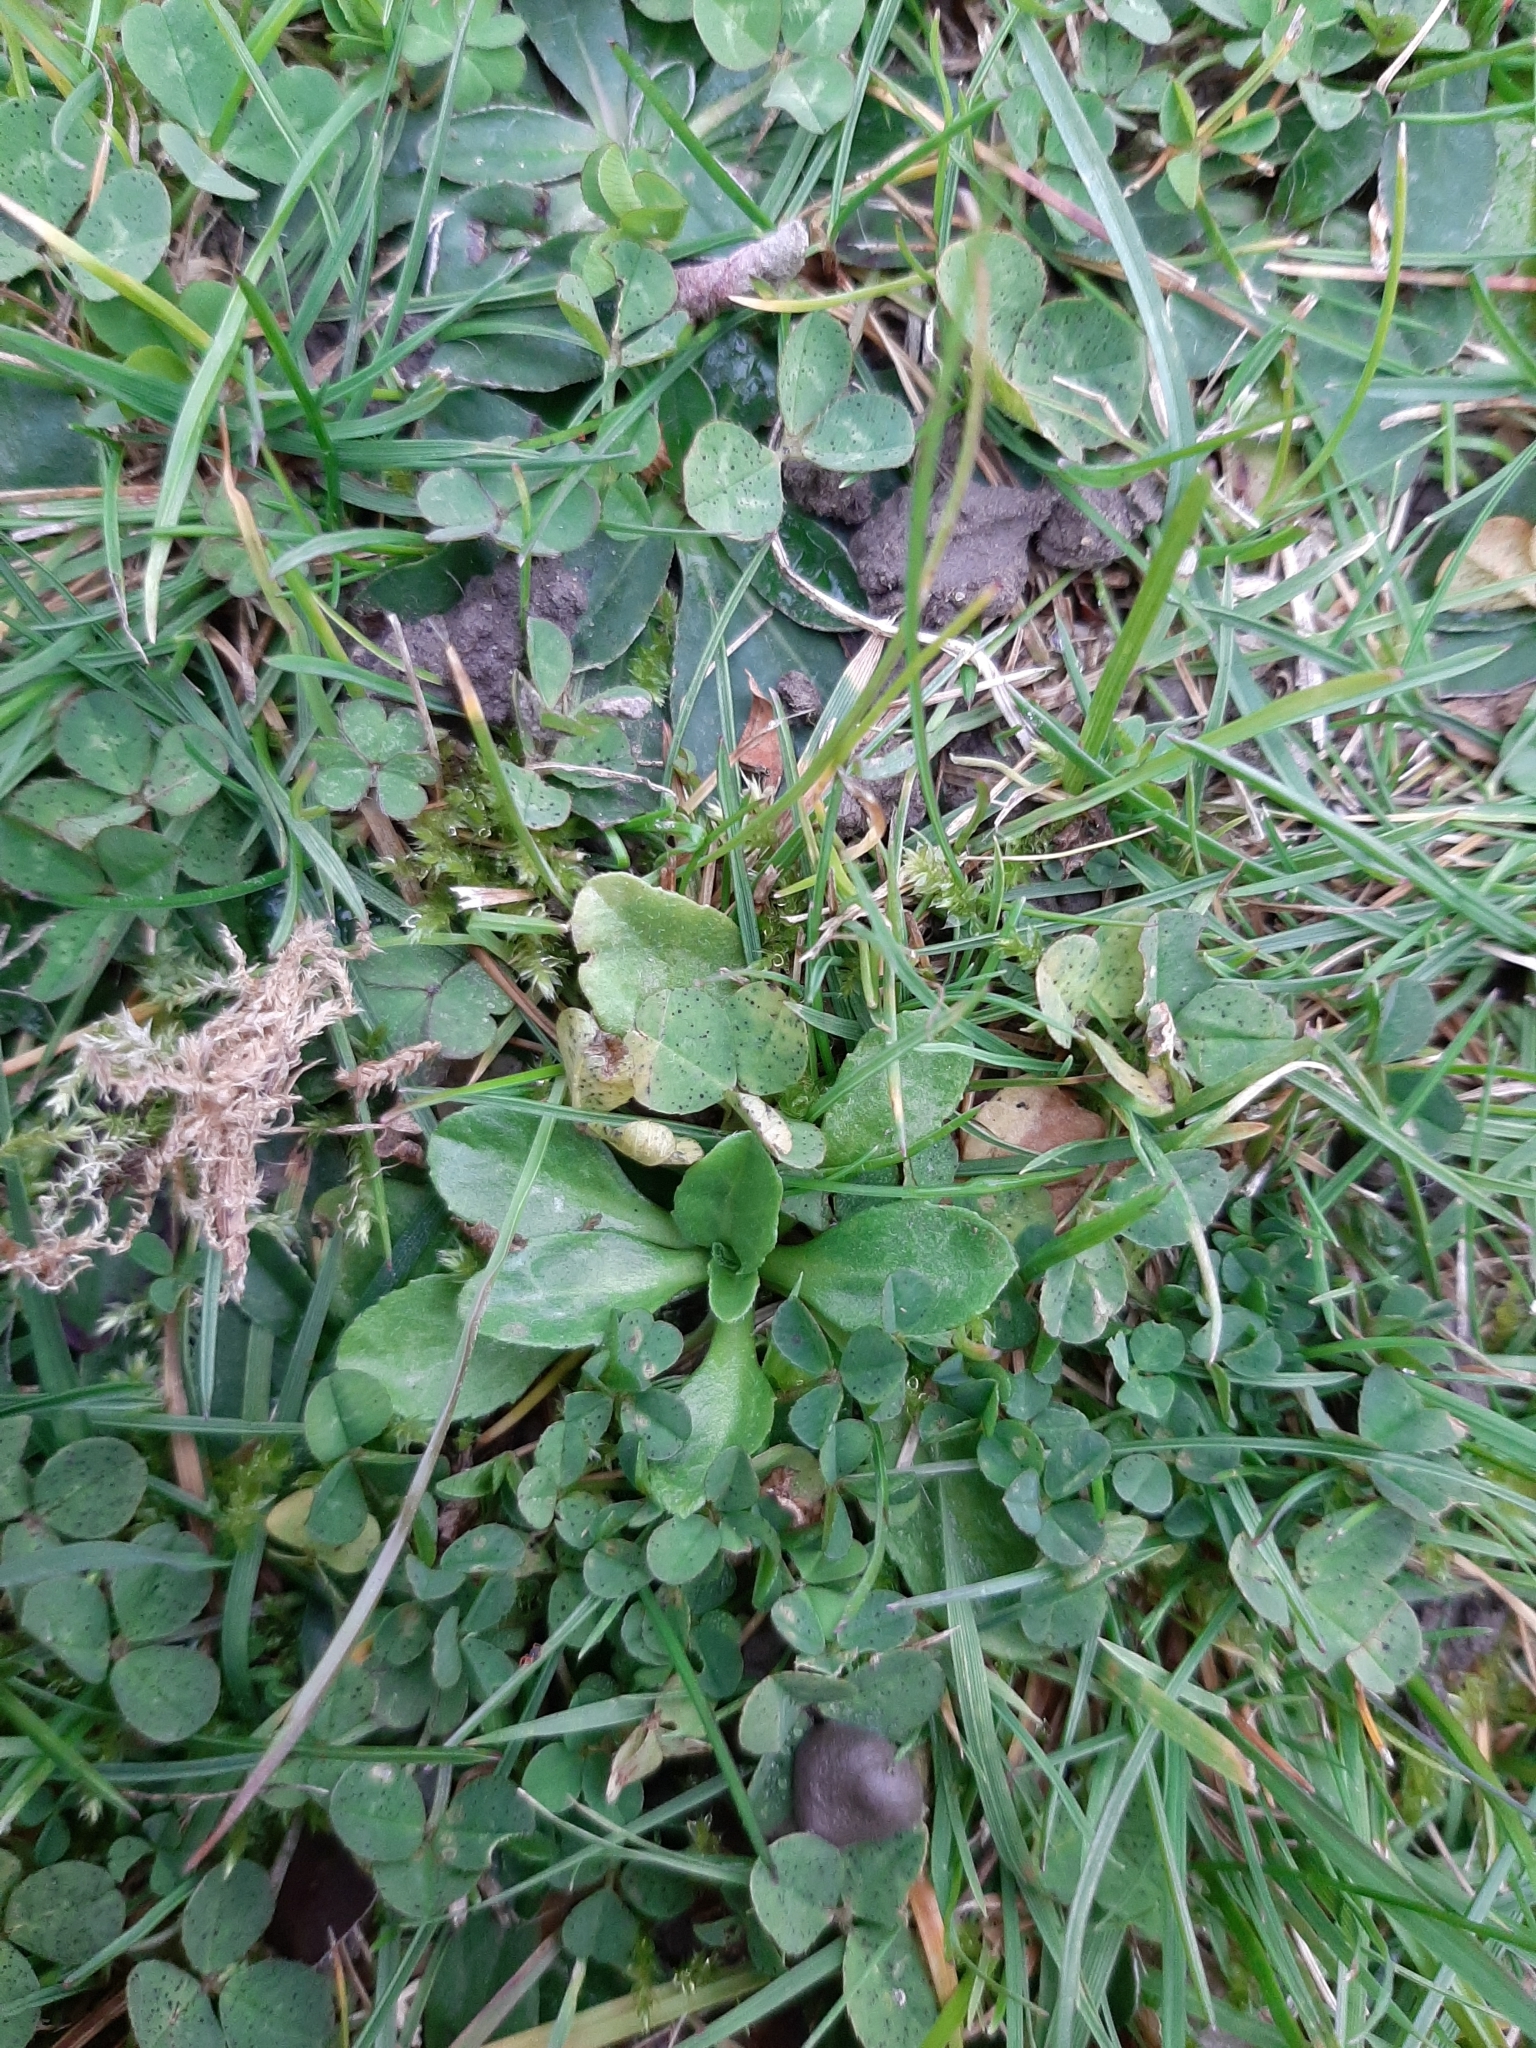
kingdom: Plantae
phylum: Tracheophyta
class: Magnoliopsida
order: Asterales
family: Asteraceae
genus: Bellis
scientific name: Bellis perennis
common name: Lawndaisy
